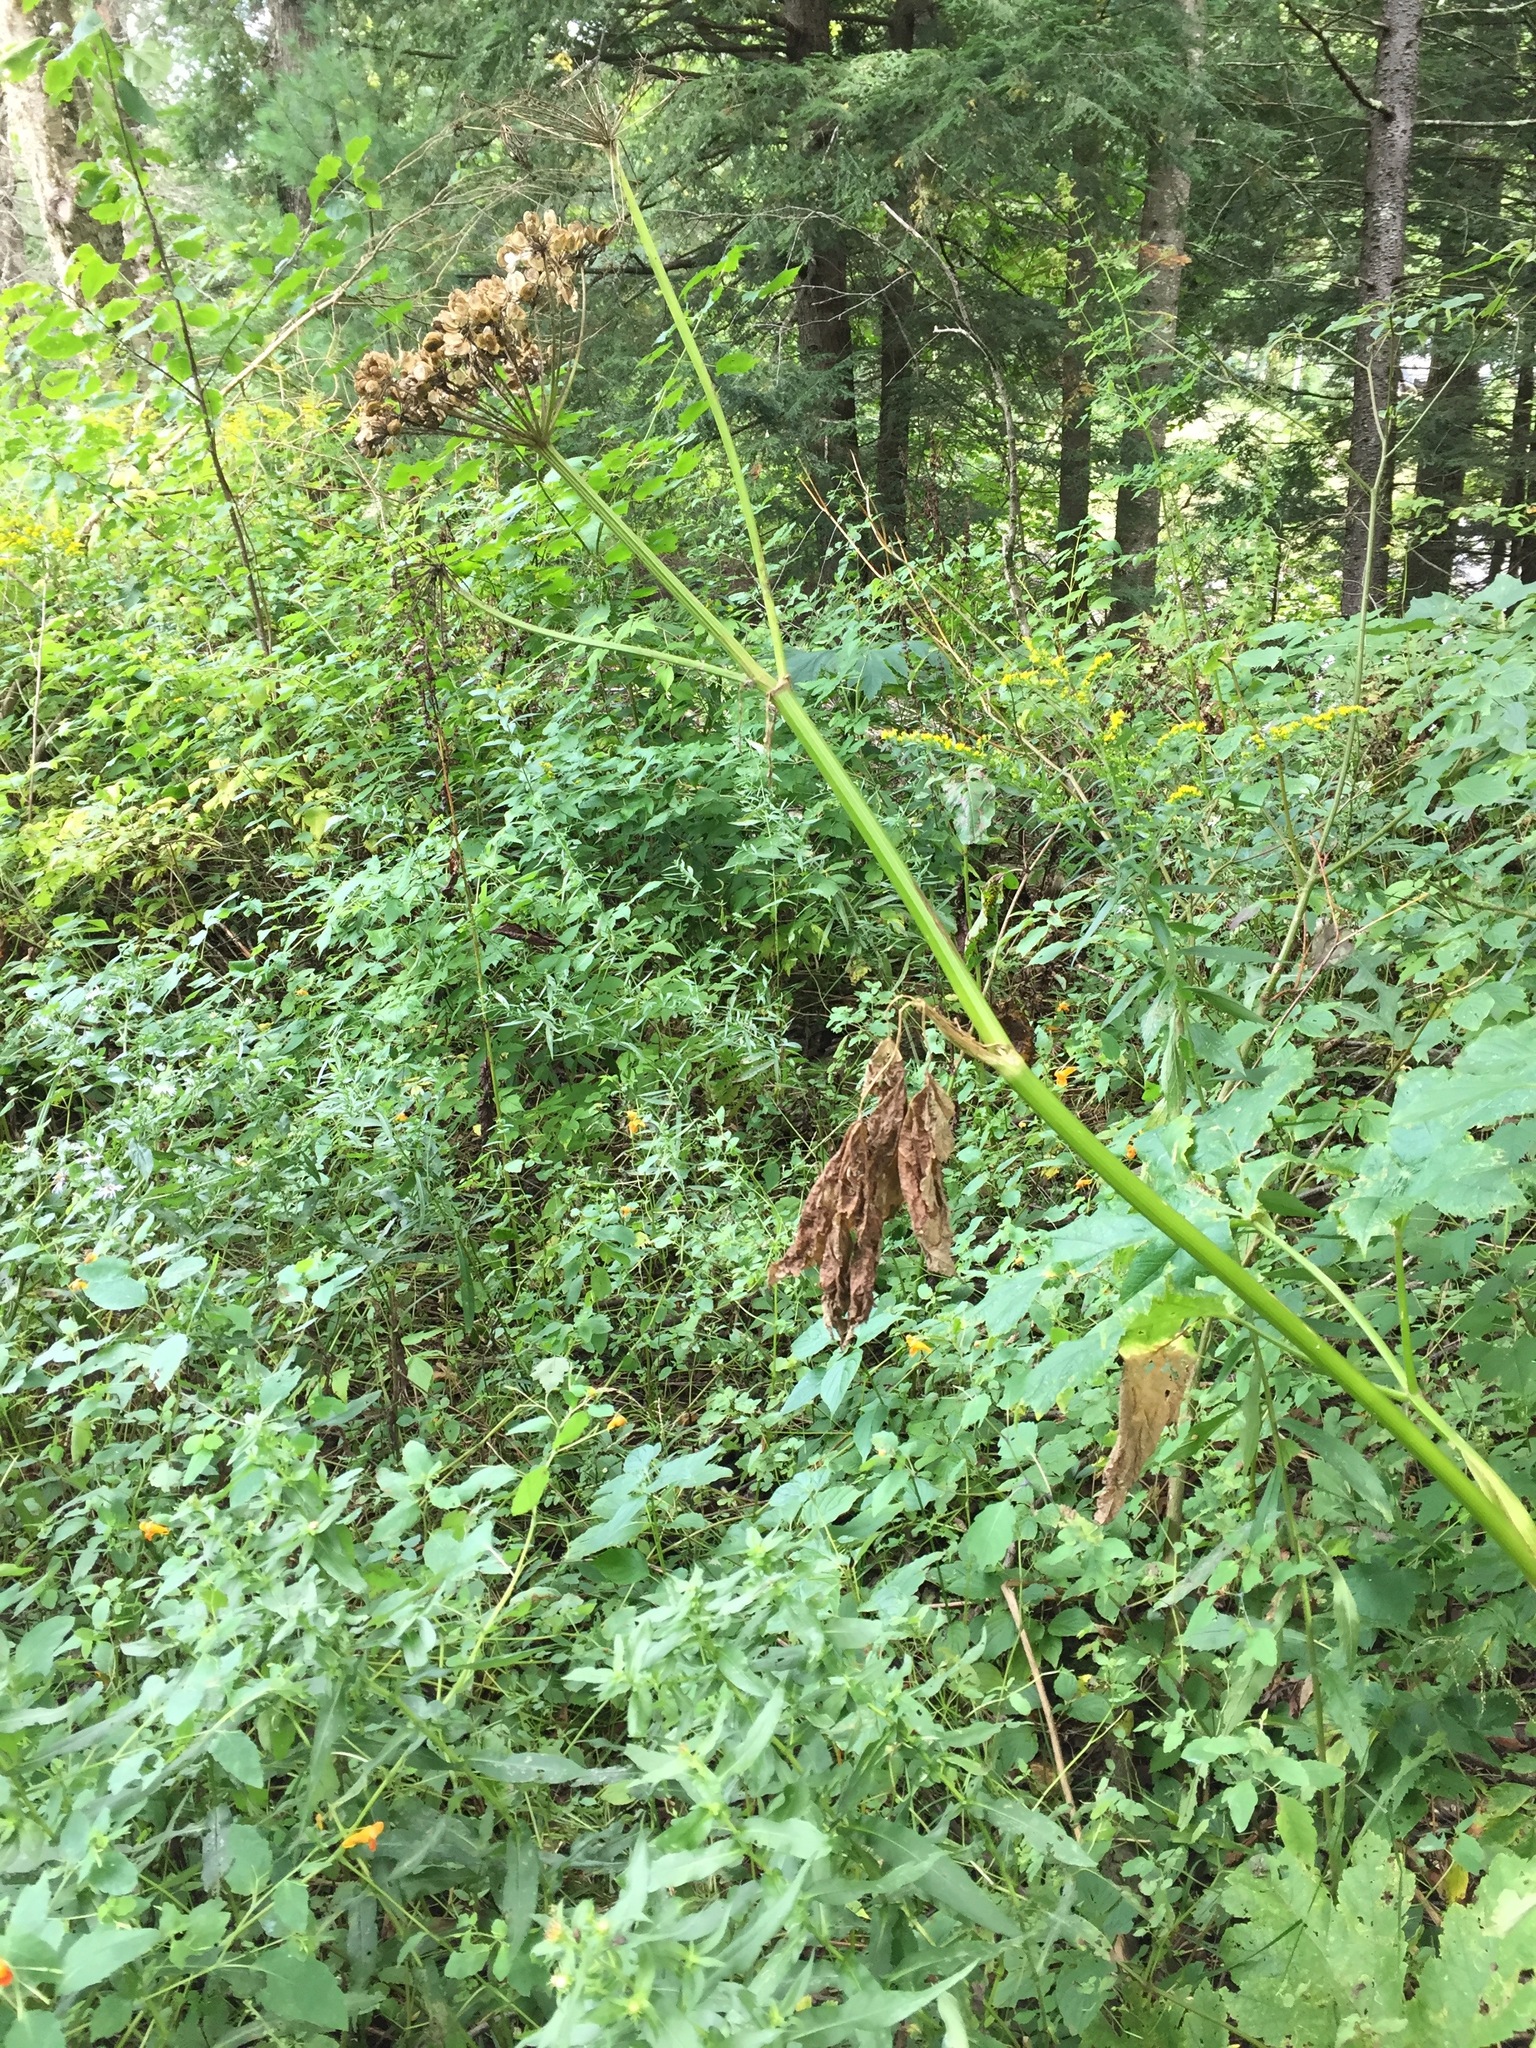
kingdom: Plantae
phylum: Tracheophyta
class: Magnoliopsida
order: Apiales
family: Apiaceae
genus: Heracleum
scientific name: Heracleum maximum
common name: American cow parsnip
